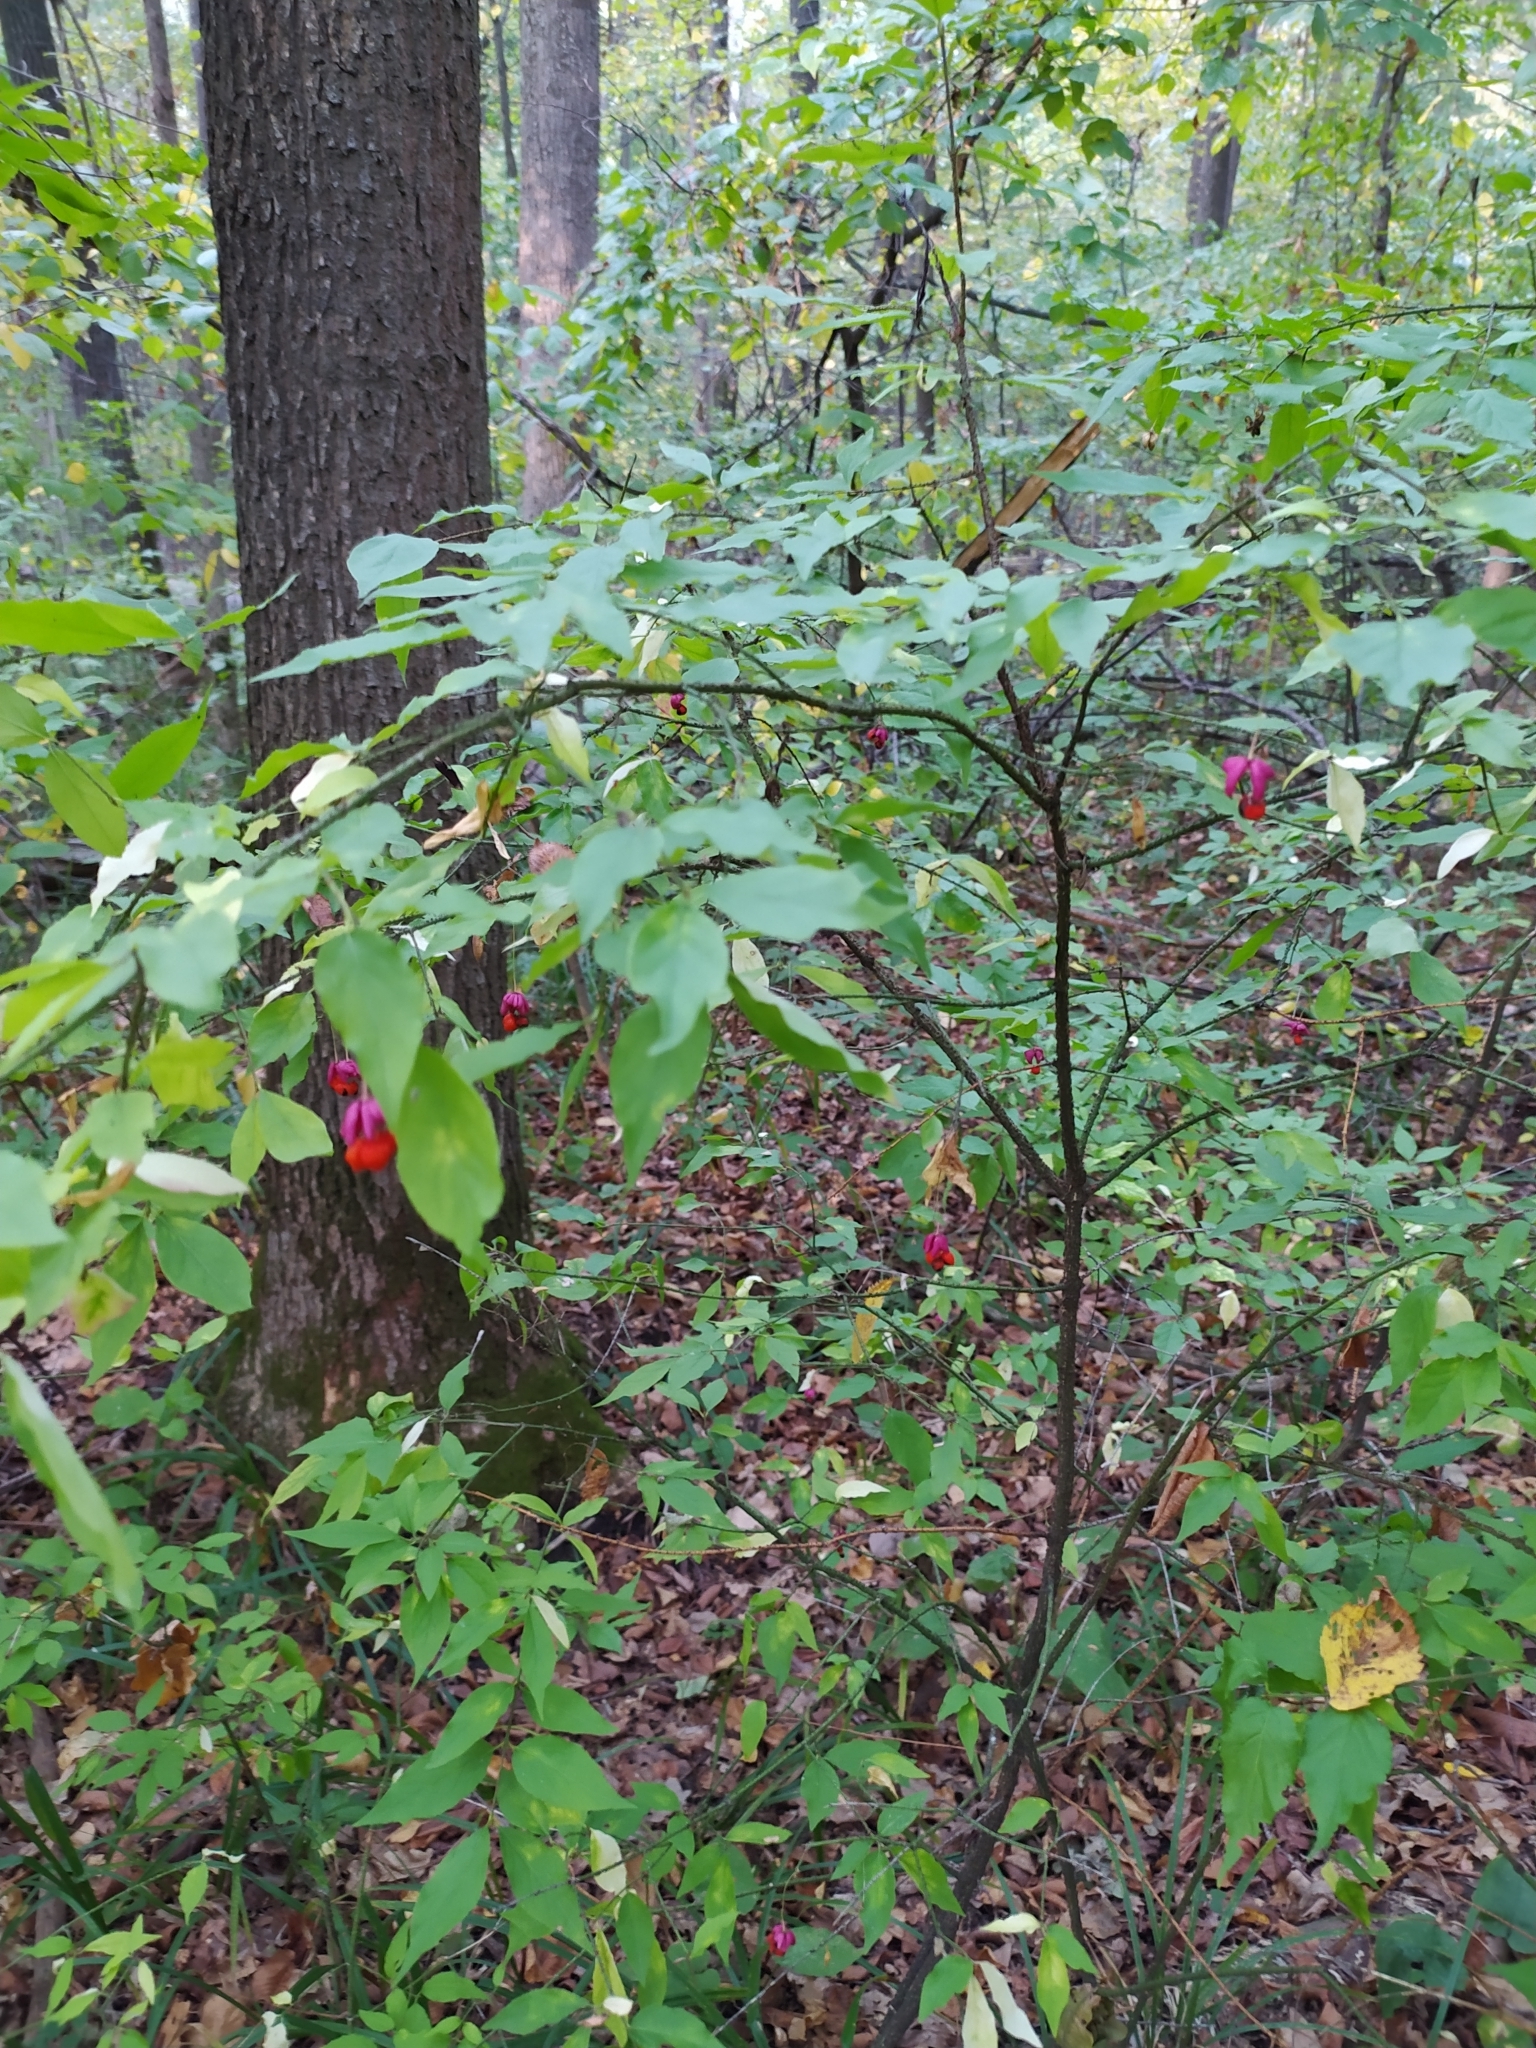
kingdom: Plantae
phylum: Tracheophyta
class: Magnoliopsida
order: Celastrales
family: Celastraceae
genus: Euonymus
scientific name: Euonymus verrucosus
